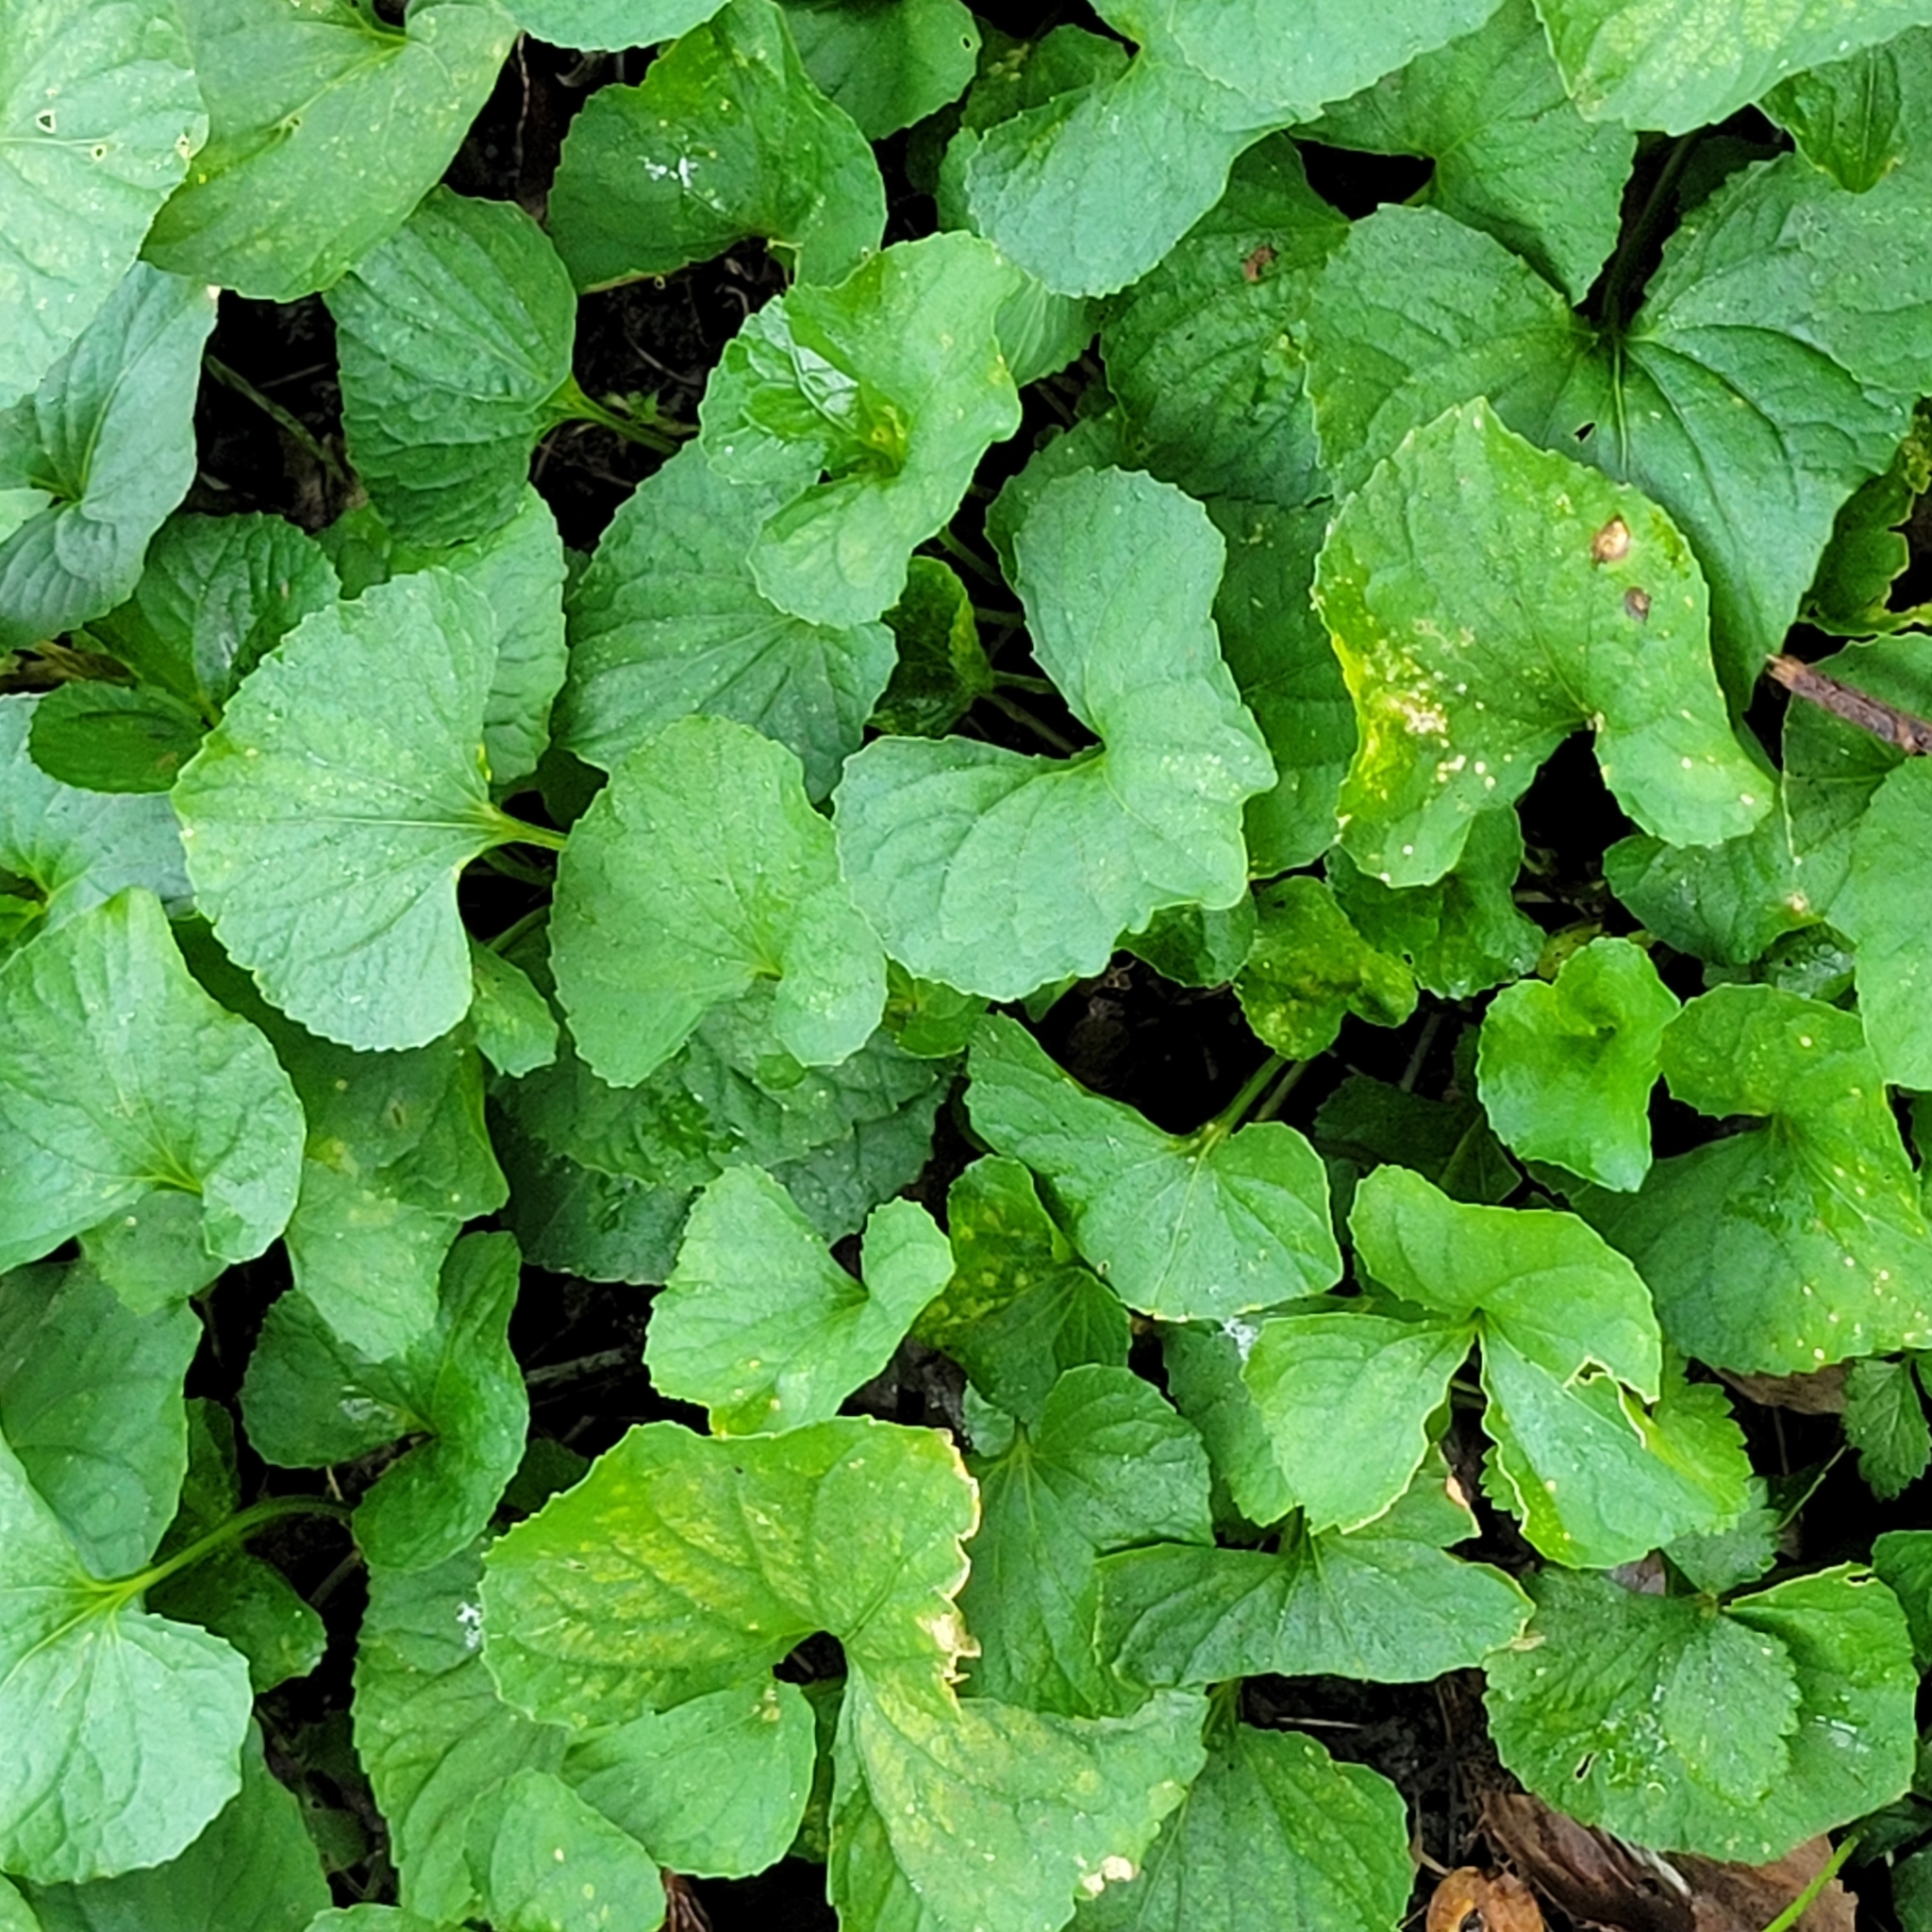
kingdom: Plantae
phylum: Tracheophyta
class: Magnoliopsida
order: Malpighiales
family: Violaceae
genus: Viola
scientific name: Viola sororia
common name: Dooryard violet
